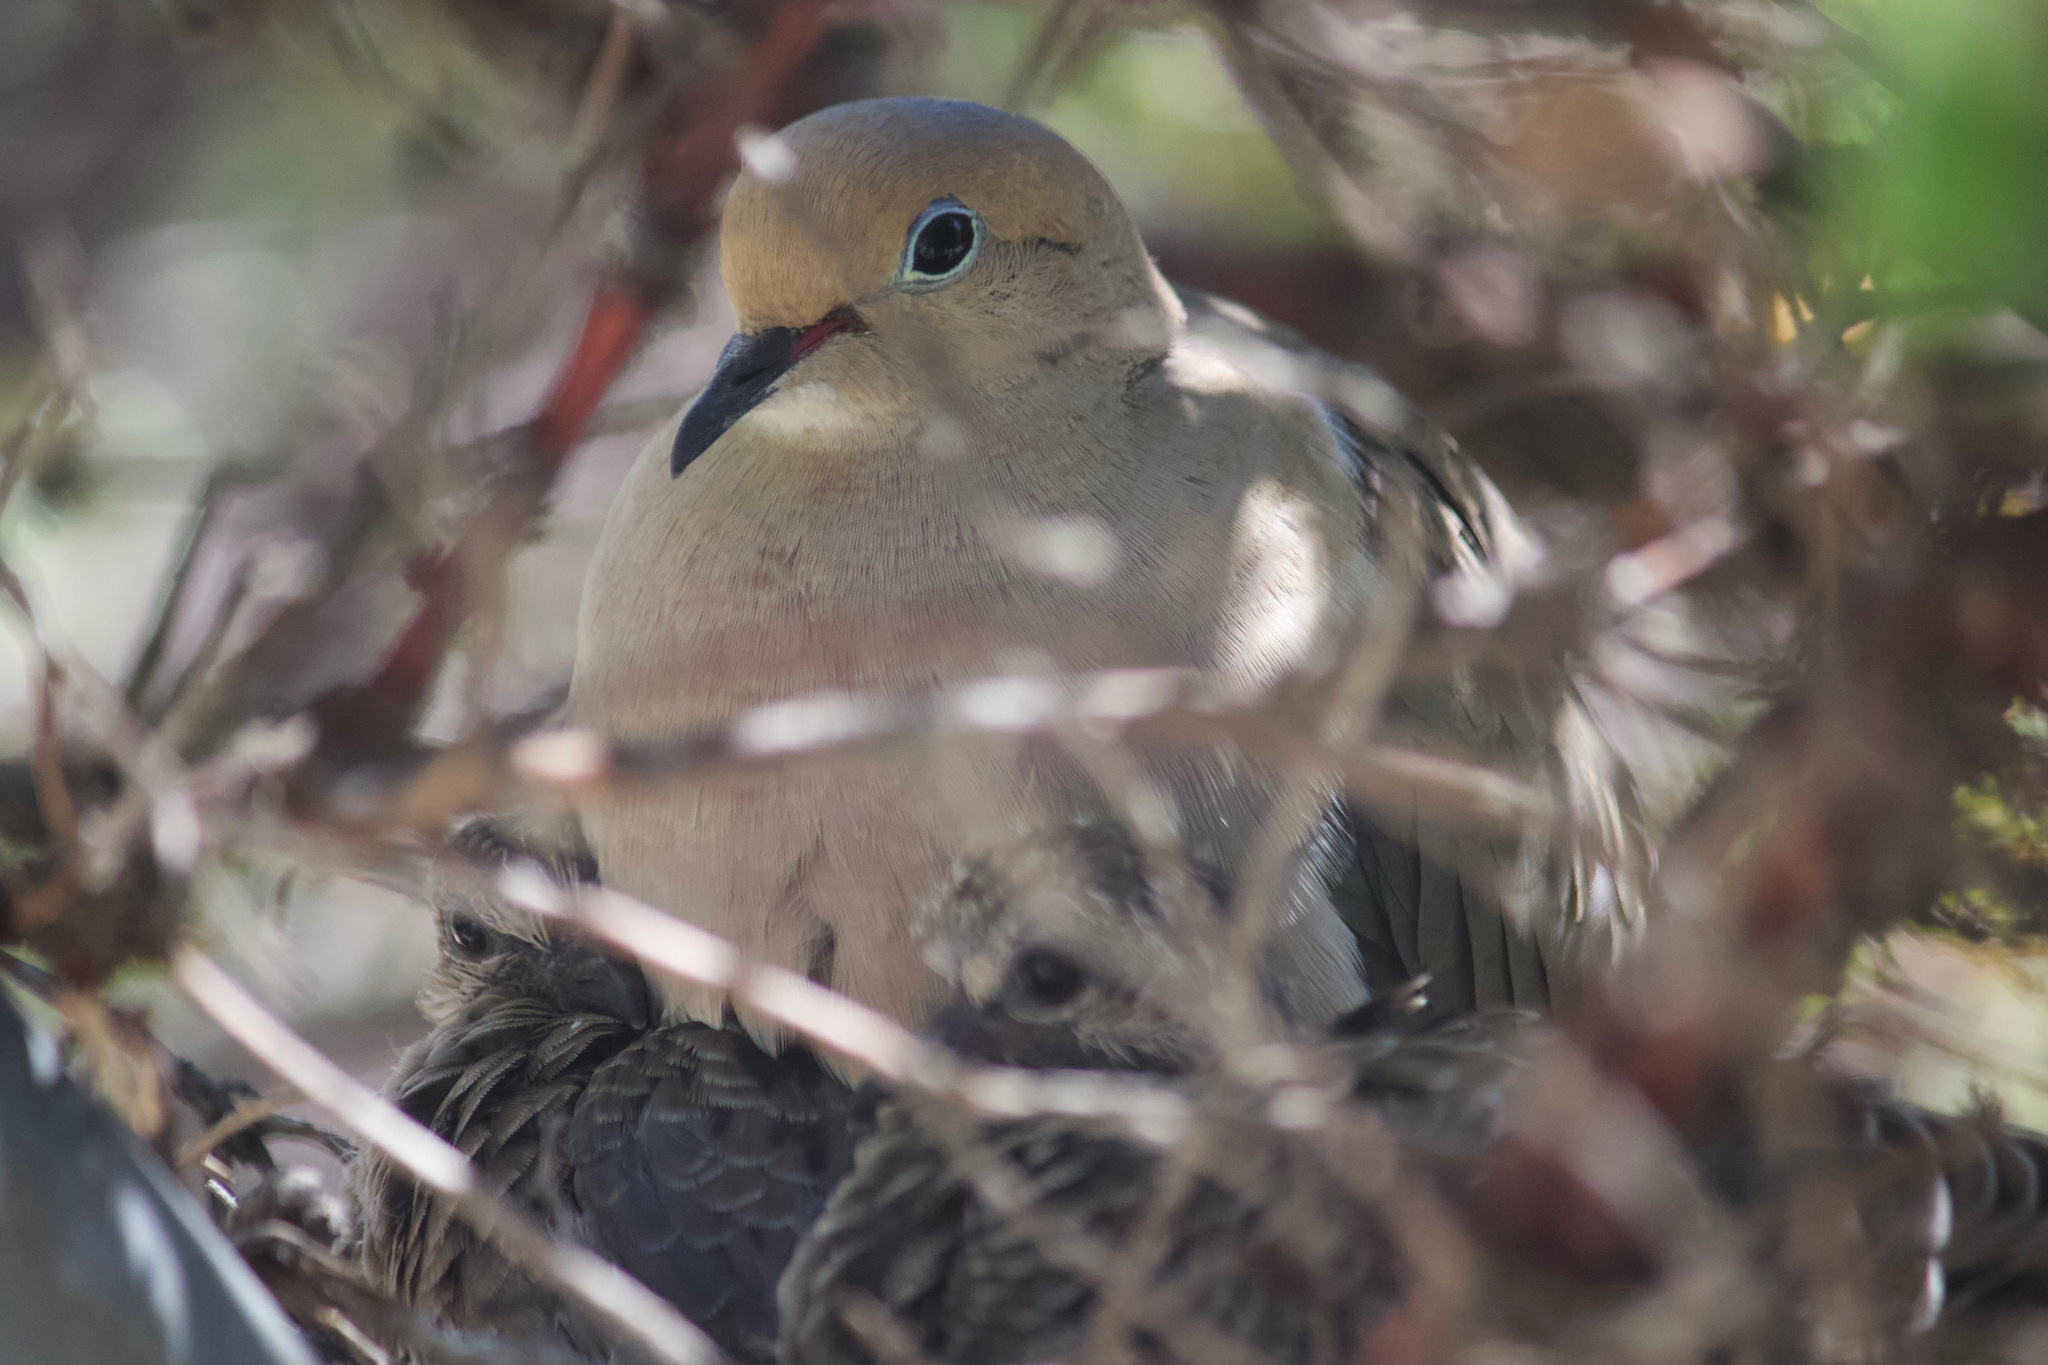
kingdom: Animalia
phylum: Chordata
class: Aves
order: Columbiformes
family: Columbidae
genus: Zenaida
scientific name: Zenaida macroura
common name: Mourning dove
